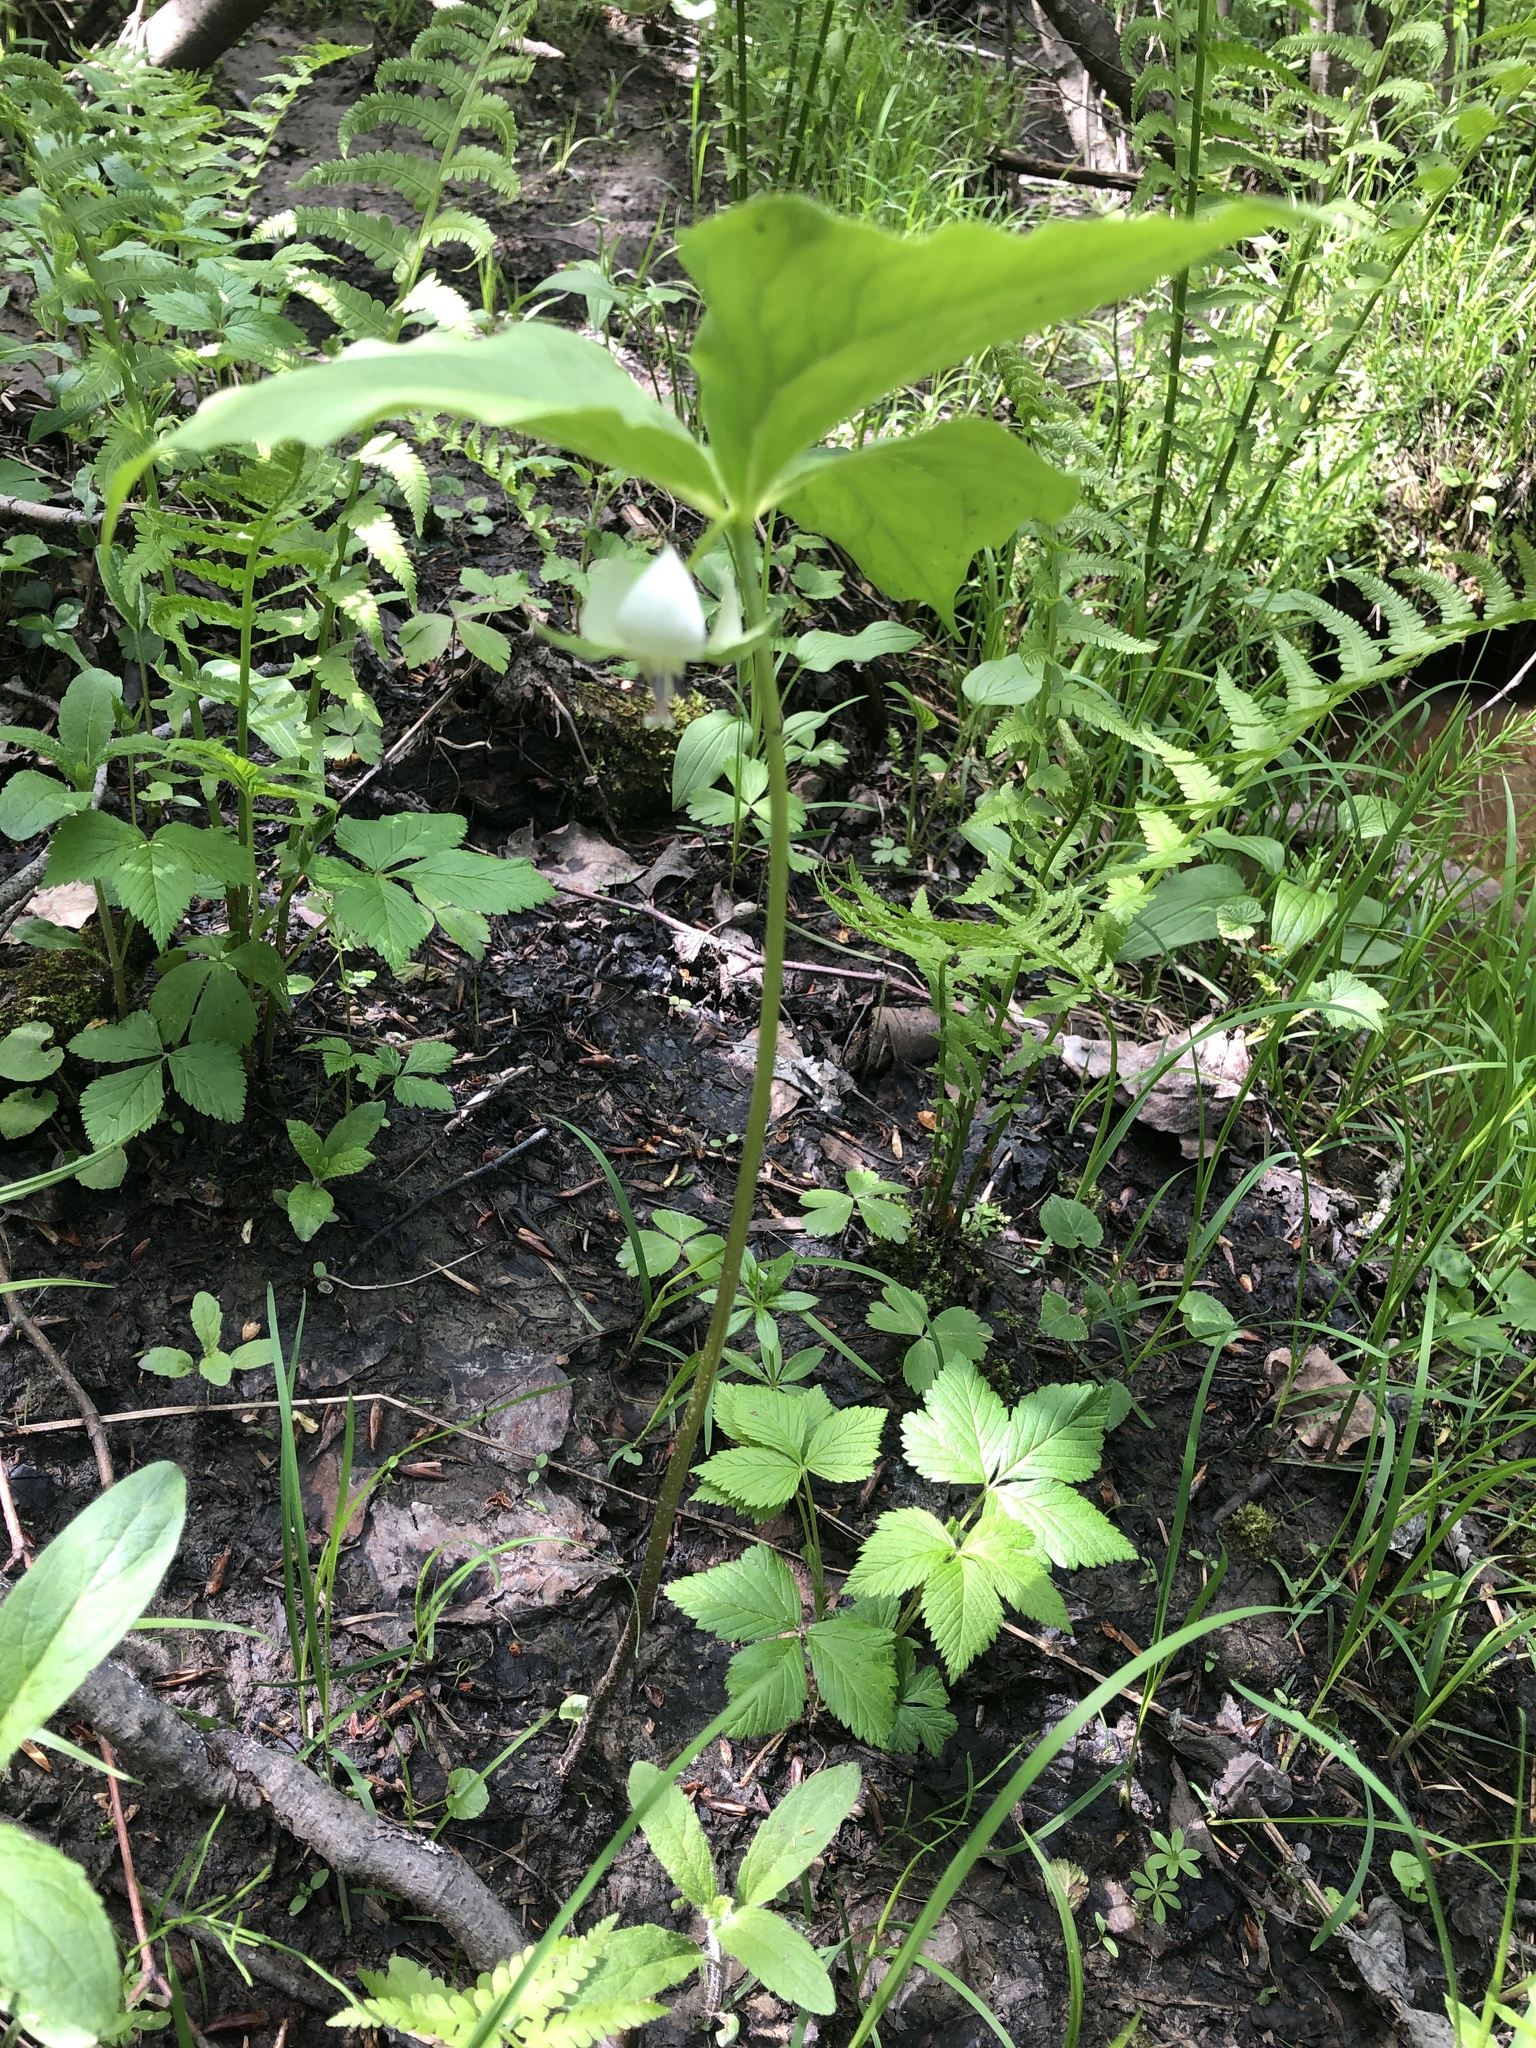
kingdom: Plantae
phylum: Tracheophyta
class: Liliopsida
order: Liliales
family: Melanthiaceae
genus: Trillium
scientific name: Trillium cernuum
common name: Nodding trillium
